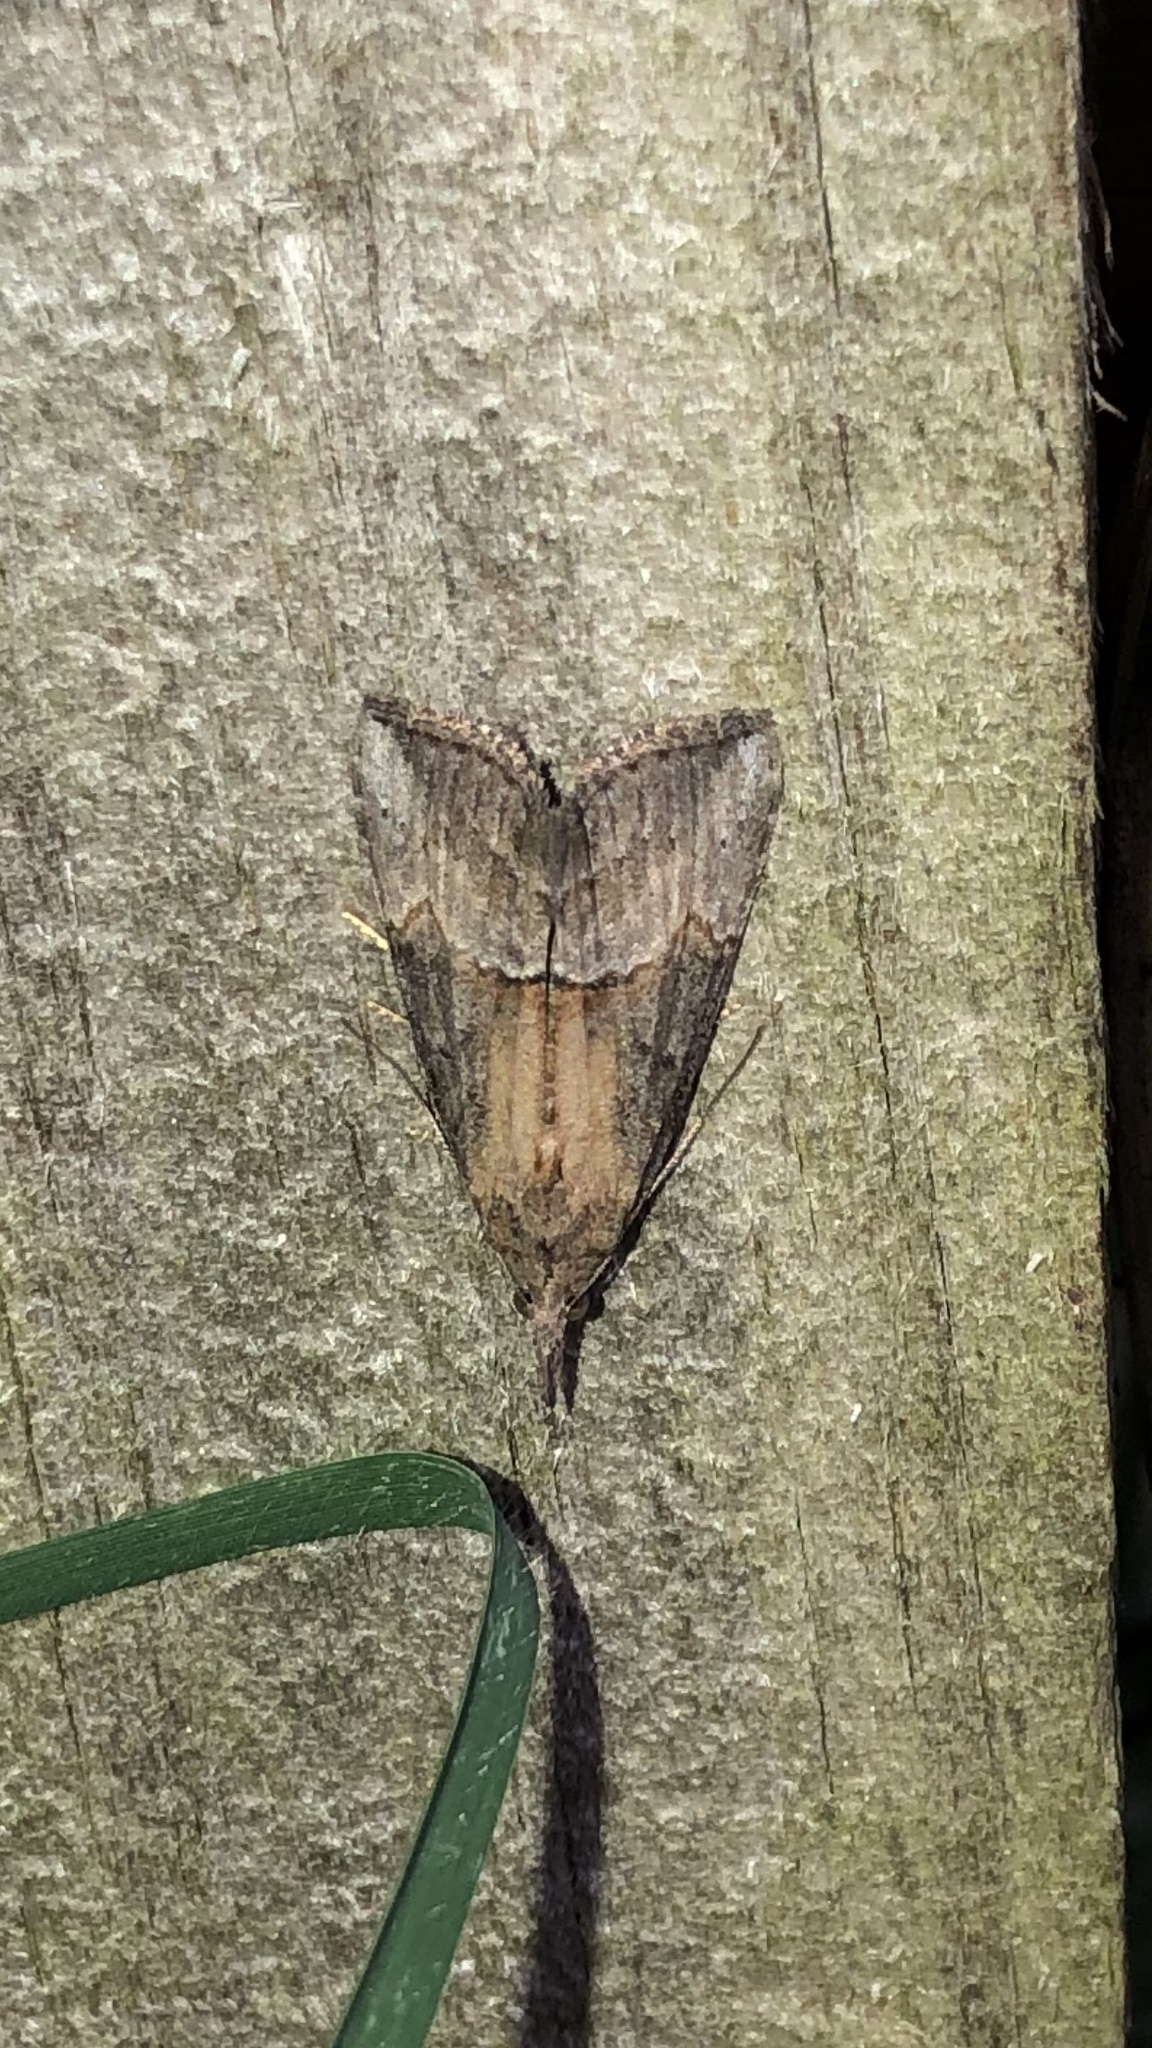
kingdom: Animalia
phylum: Arthropoda
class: Insecta
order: Lepidoptera
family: Erebidae
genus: Hypena
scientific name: Hypena scabra
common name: Green cloverworm
